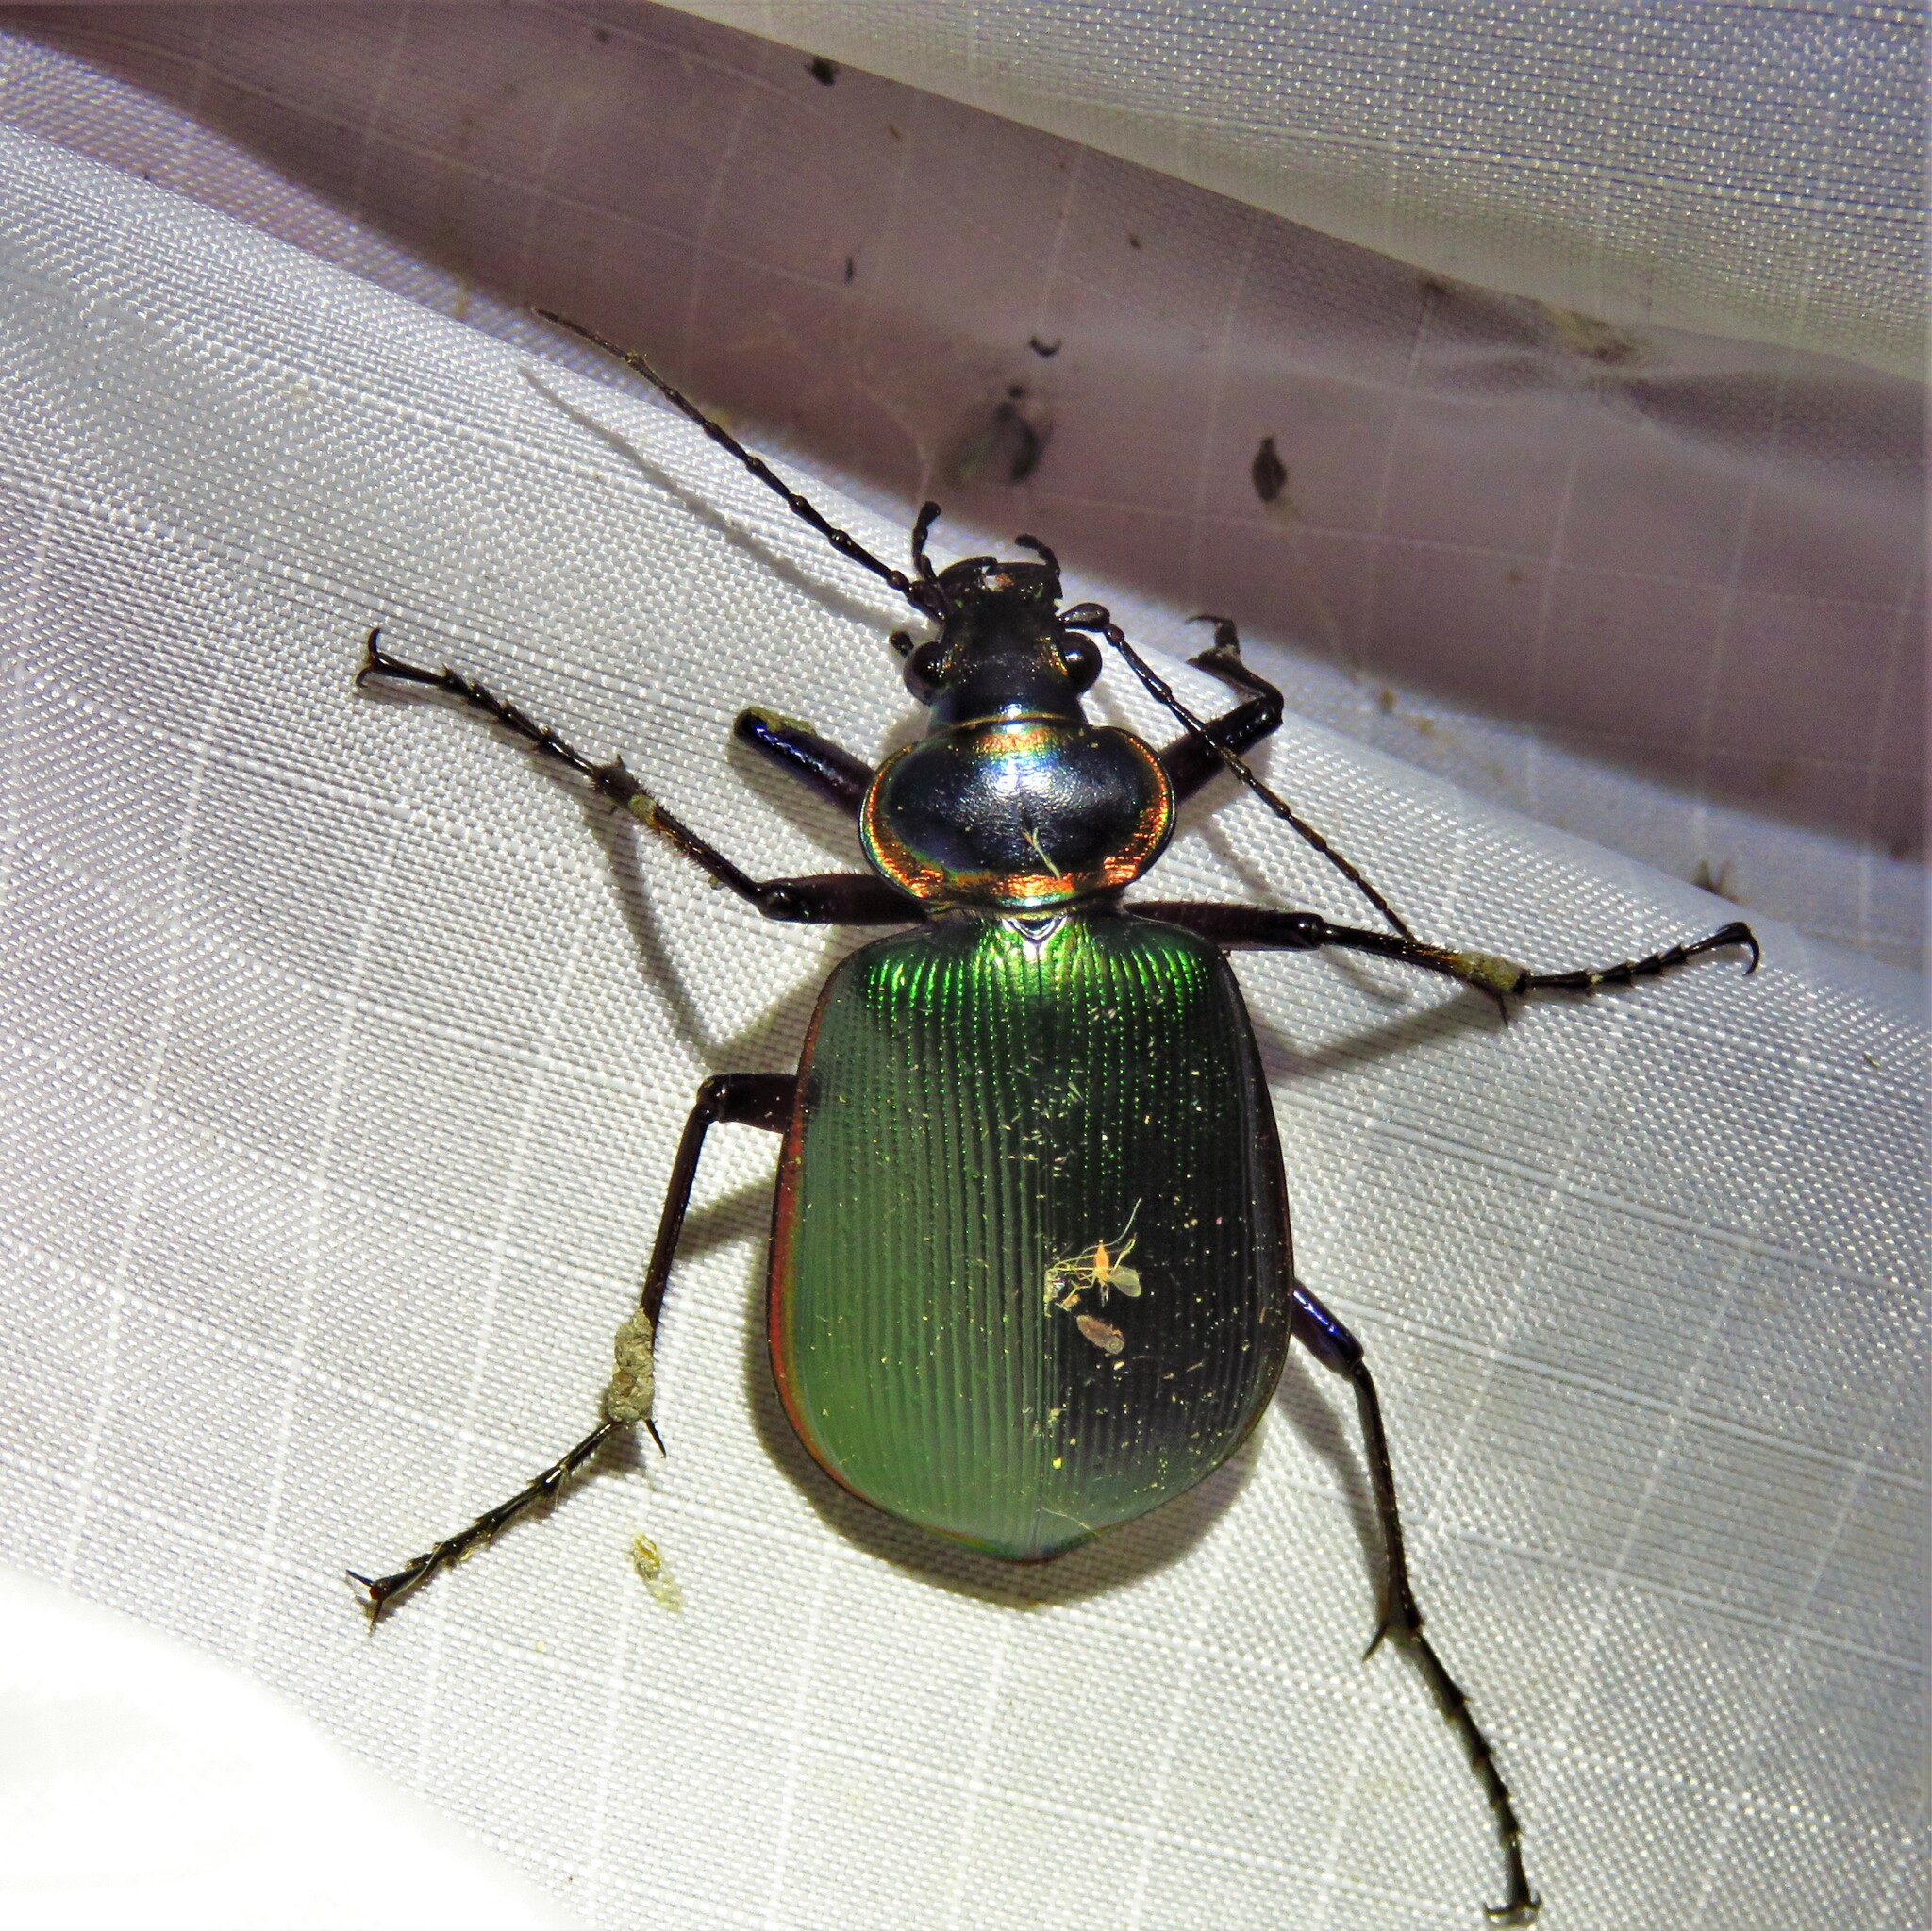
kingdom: Animalia
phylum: Arthropoda
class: Insecta
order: Coleoptera
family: Carabidae
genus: Calosoma
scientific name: Calosoma scrutator
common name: Fiery searcher beetle
